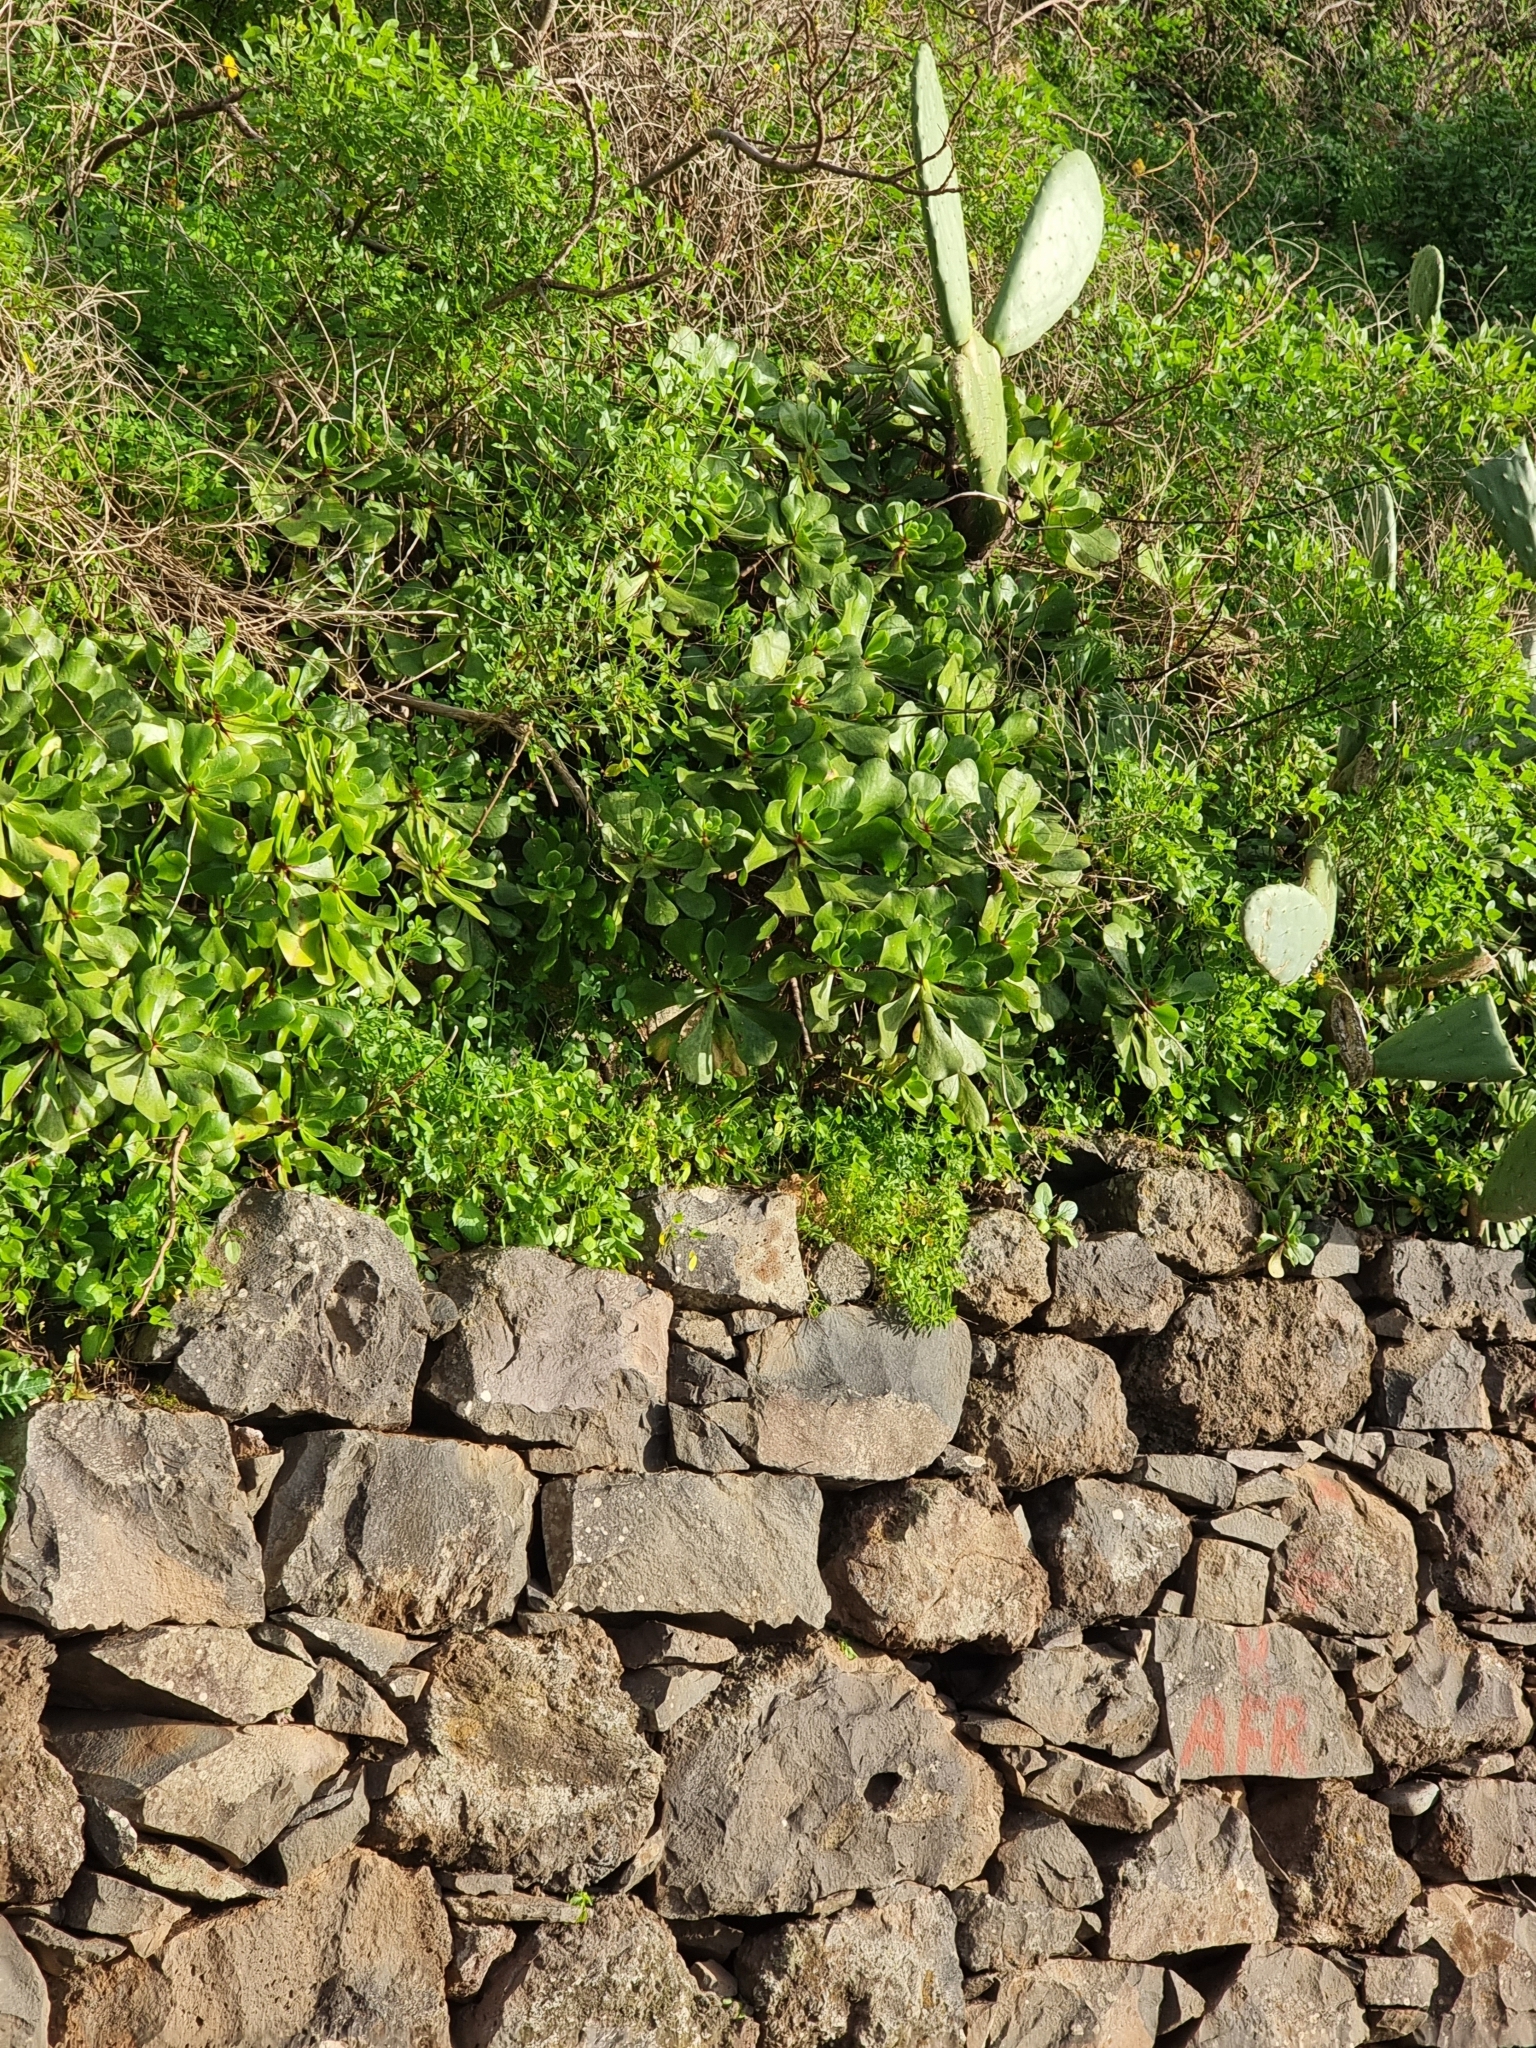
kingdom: Plantae
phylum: Tracheophyta
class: Magnoliopsida
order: Saxifragales
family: Crassulaceae
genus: Aeonium
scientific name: Aeonium glutinosum
